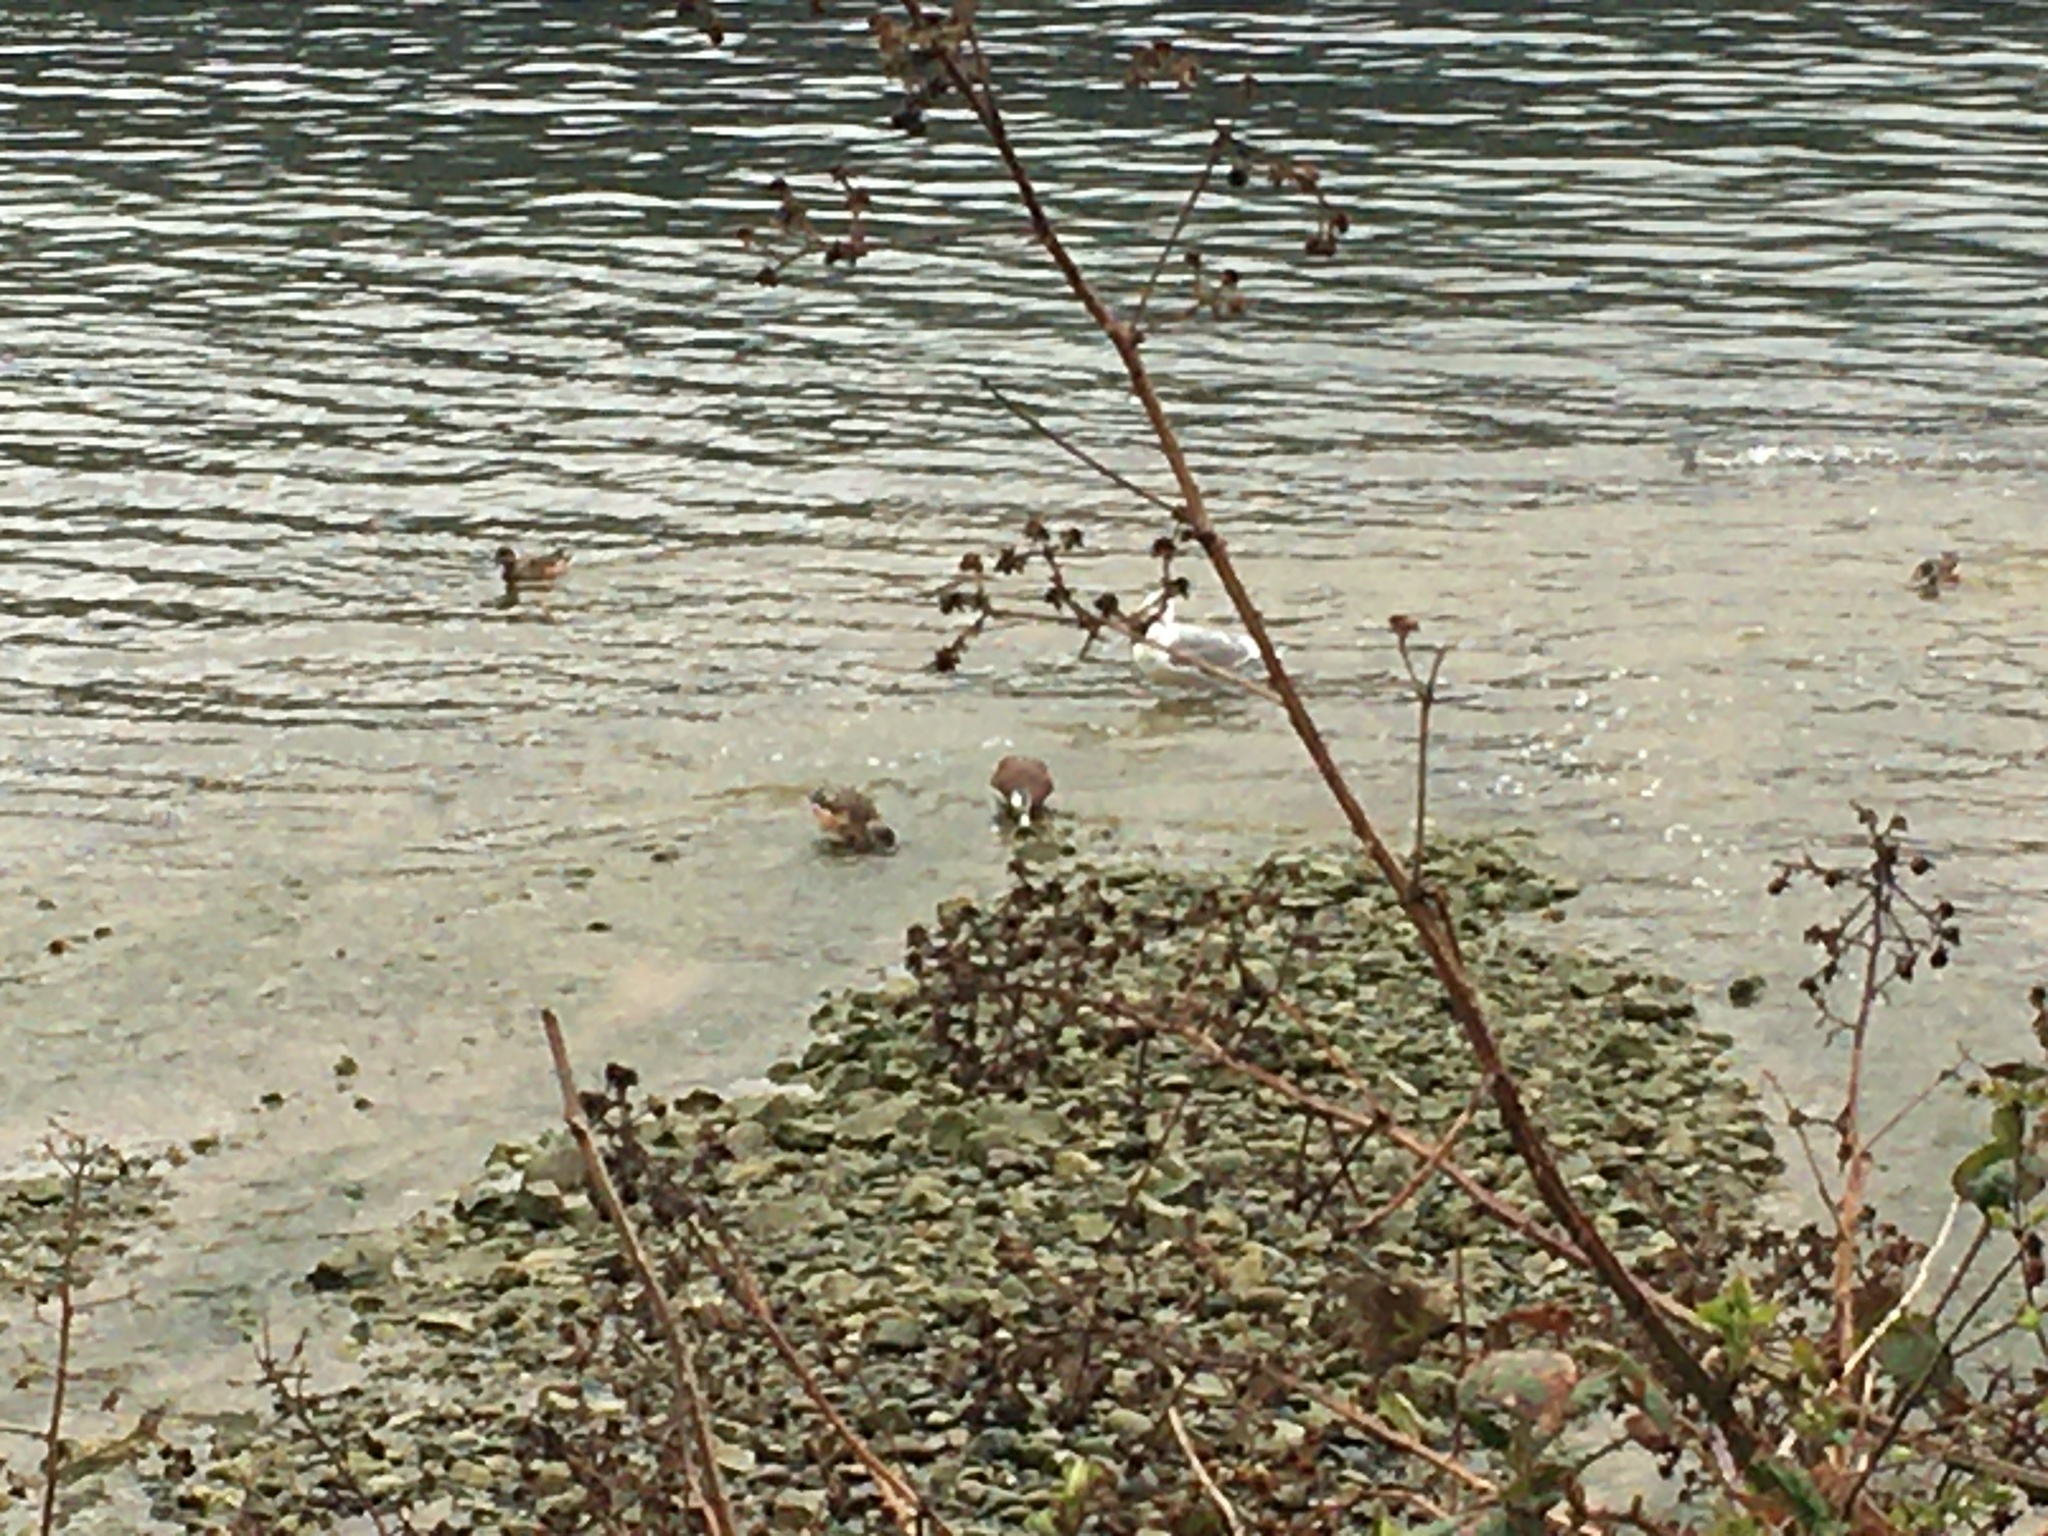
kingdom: Animalia
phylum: Chordata
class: Aves
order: Anseriformes
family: Anatidae
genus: Mareca
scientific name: Mareca americana
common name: American wigeon
